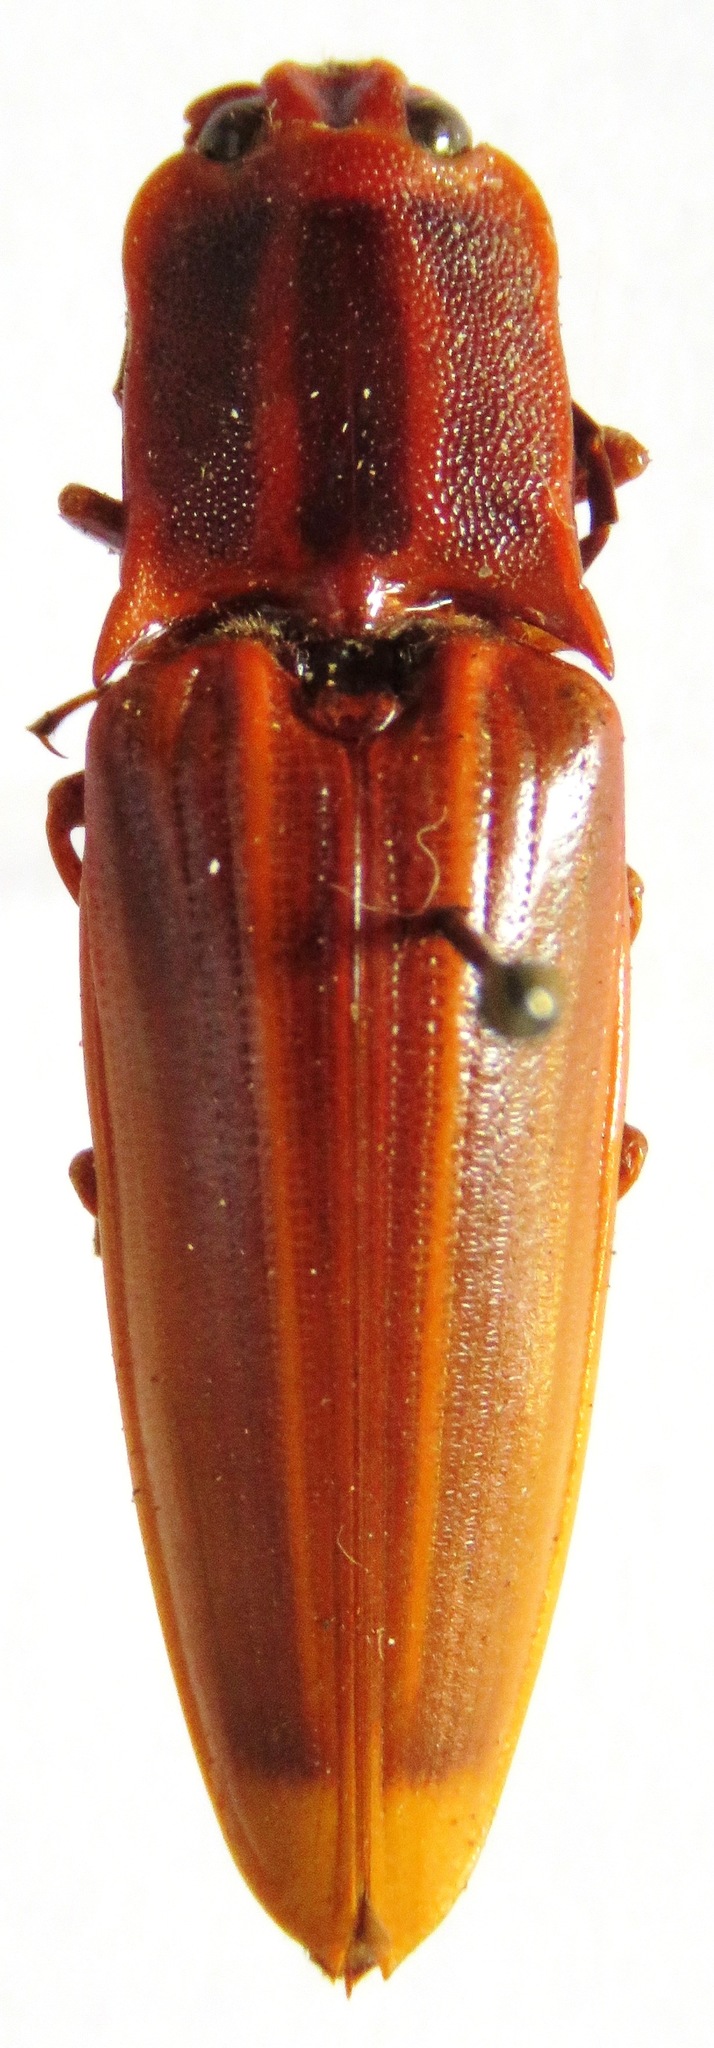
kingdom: Animalia
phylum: Arthropoda
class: Insecta
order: Coleoptera
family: Elateridae
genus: Semiotus
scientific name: Semiotus ligneus
